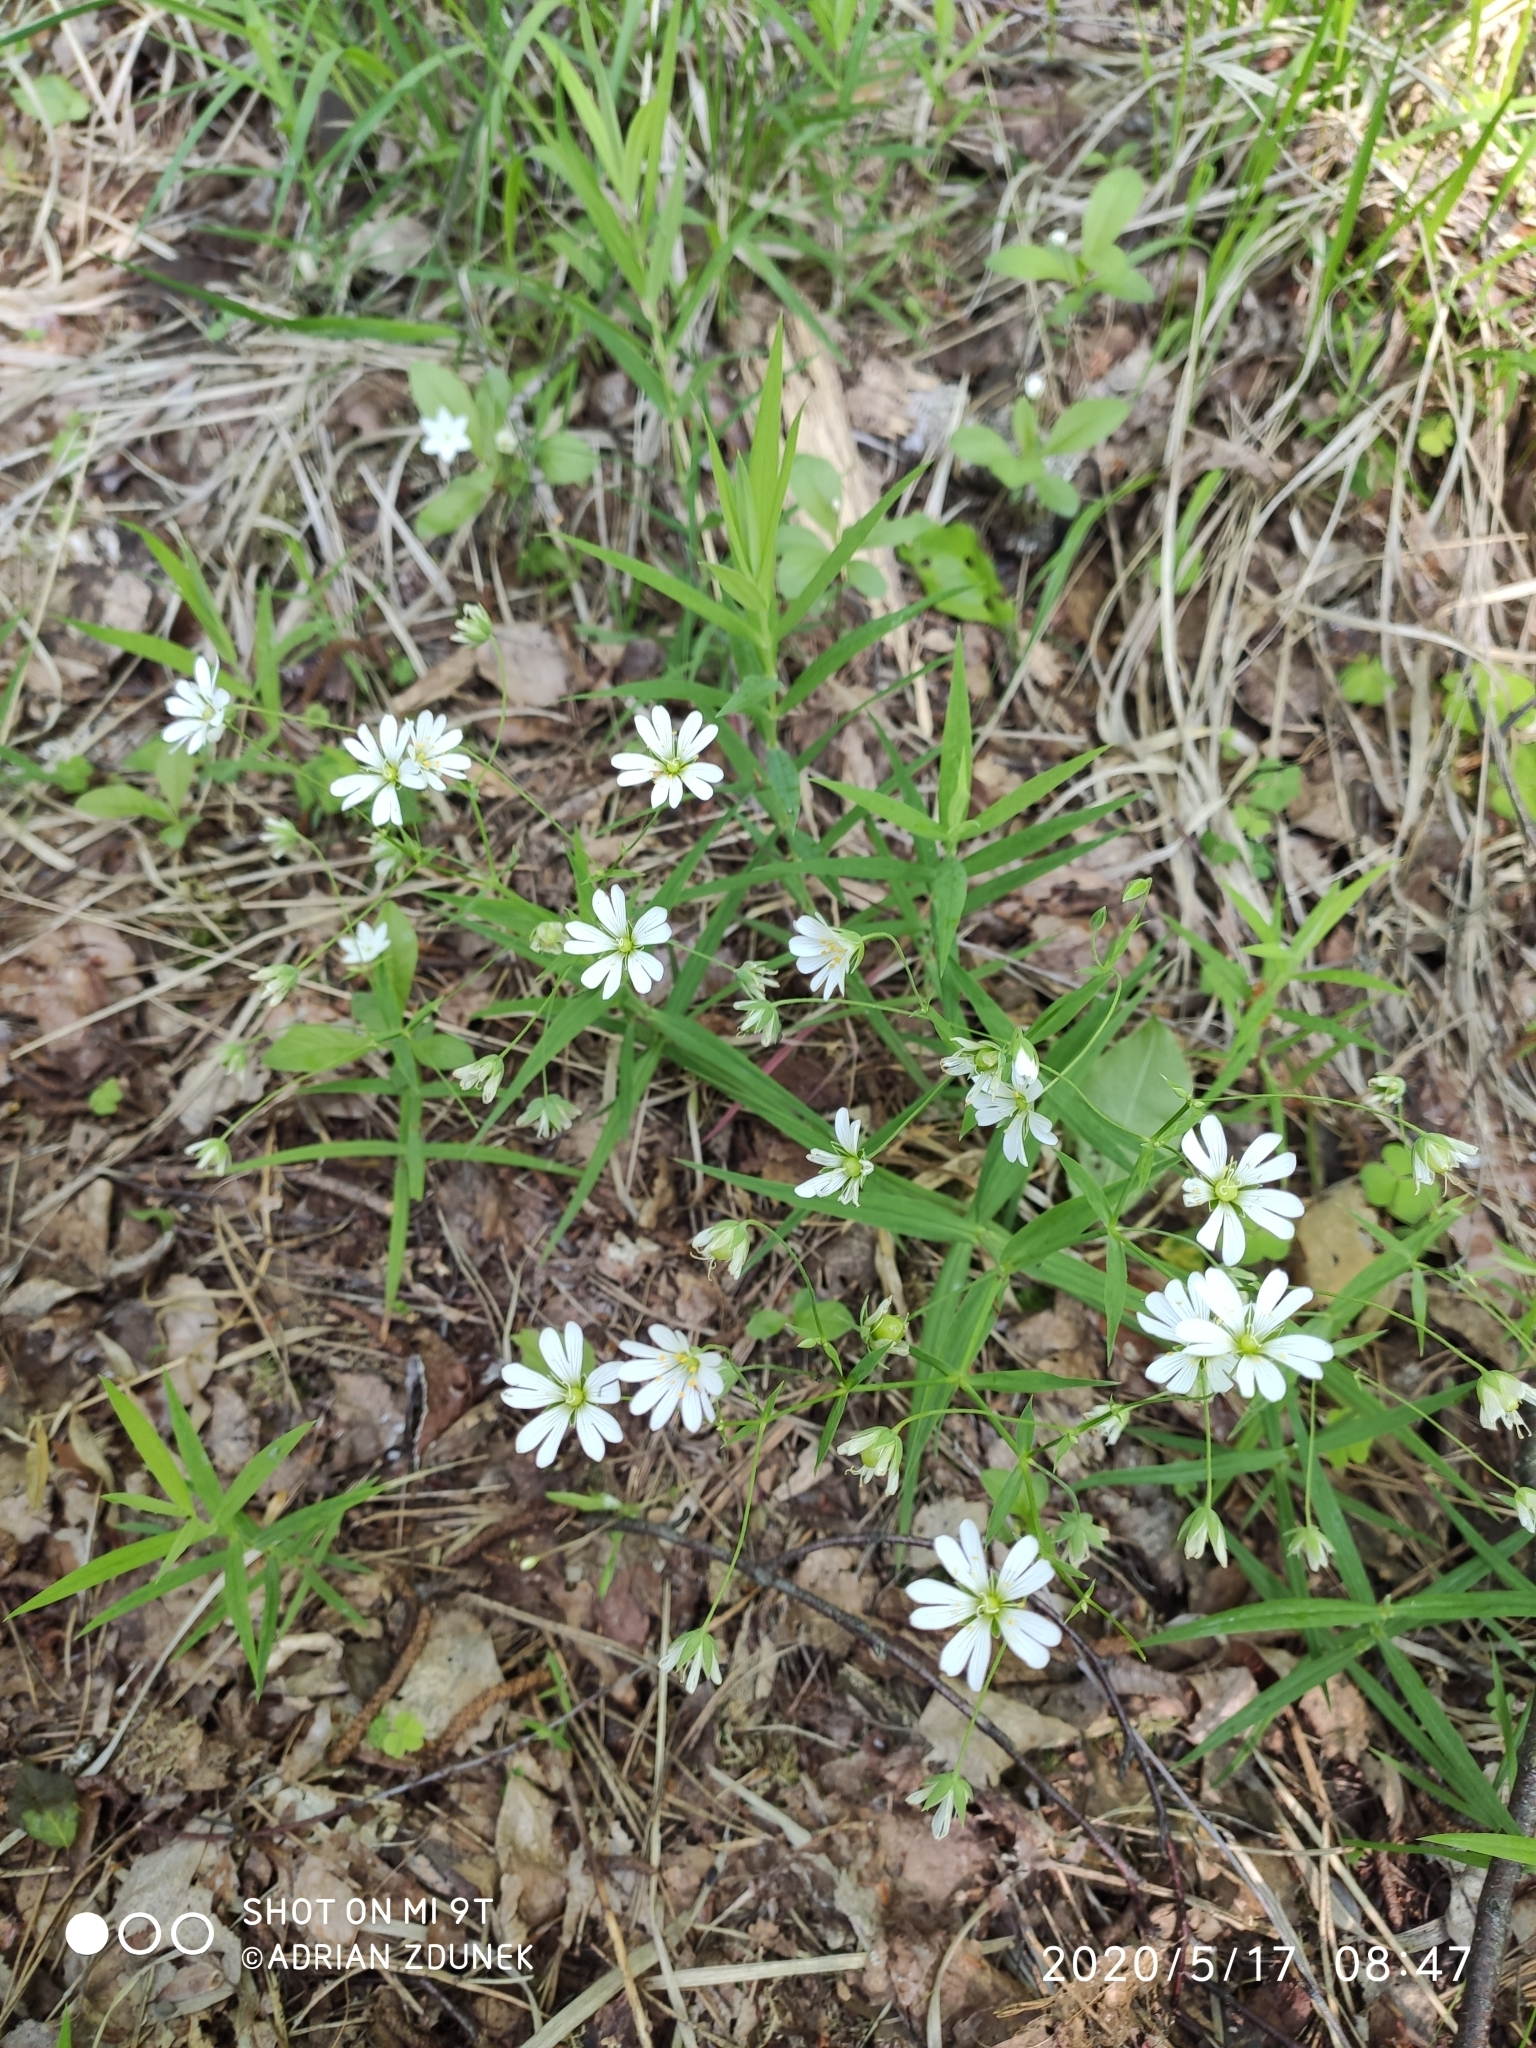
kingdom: Plantae
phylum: Tracheophyta
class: Magnoliopsida
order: Caryophyllales
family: Caryophyllaceae
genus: Rabelera
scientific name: Rabelera holostea
